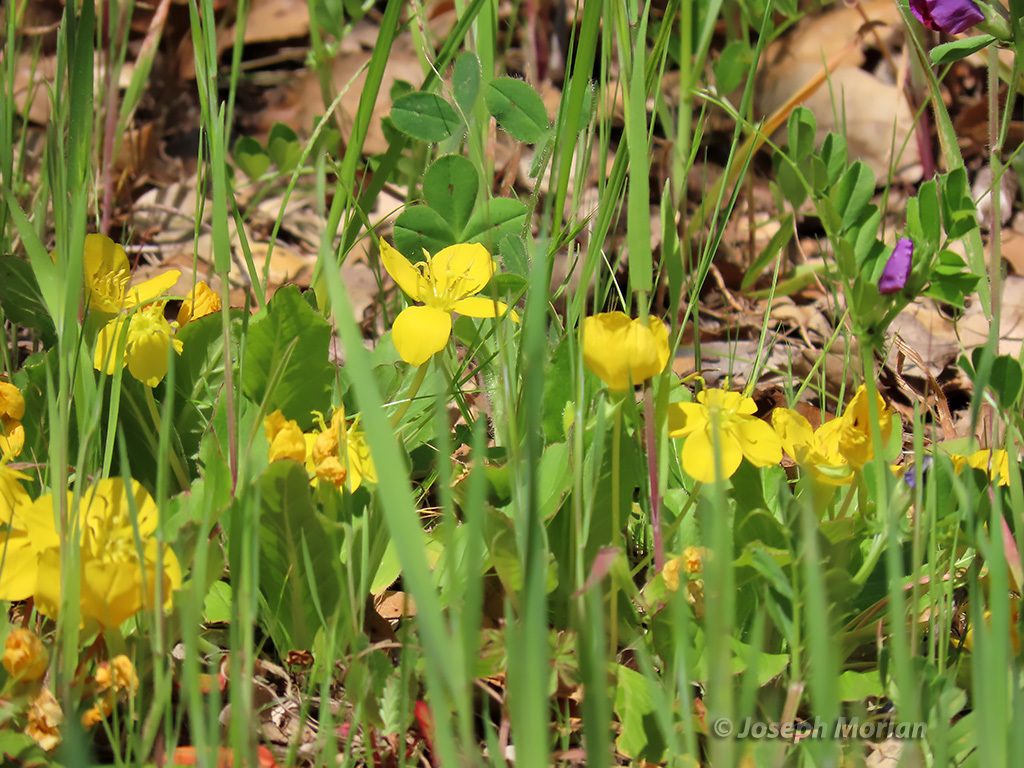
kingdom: Plantae
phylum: Tracheophyta
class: Magnoliopsida
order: Myrtales
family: Onagraceae
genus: Taraxia
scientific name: Taraxia ovata
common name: Goldeneggs
